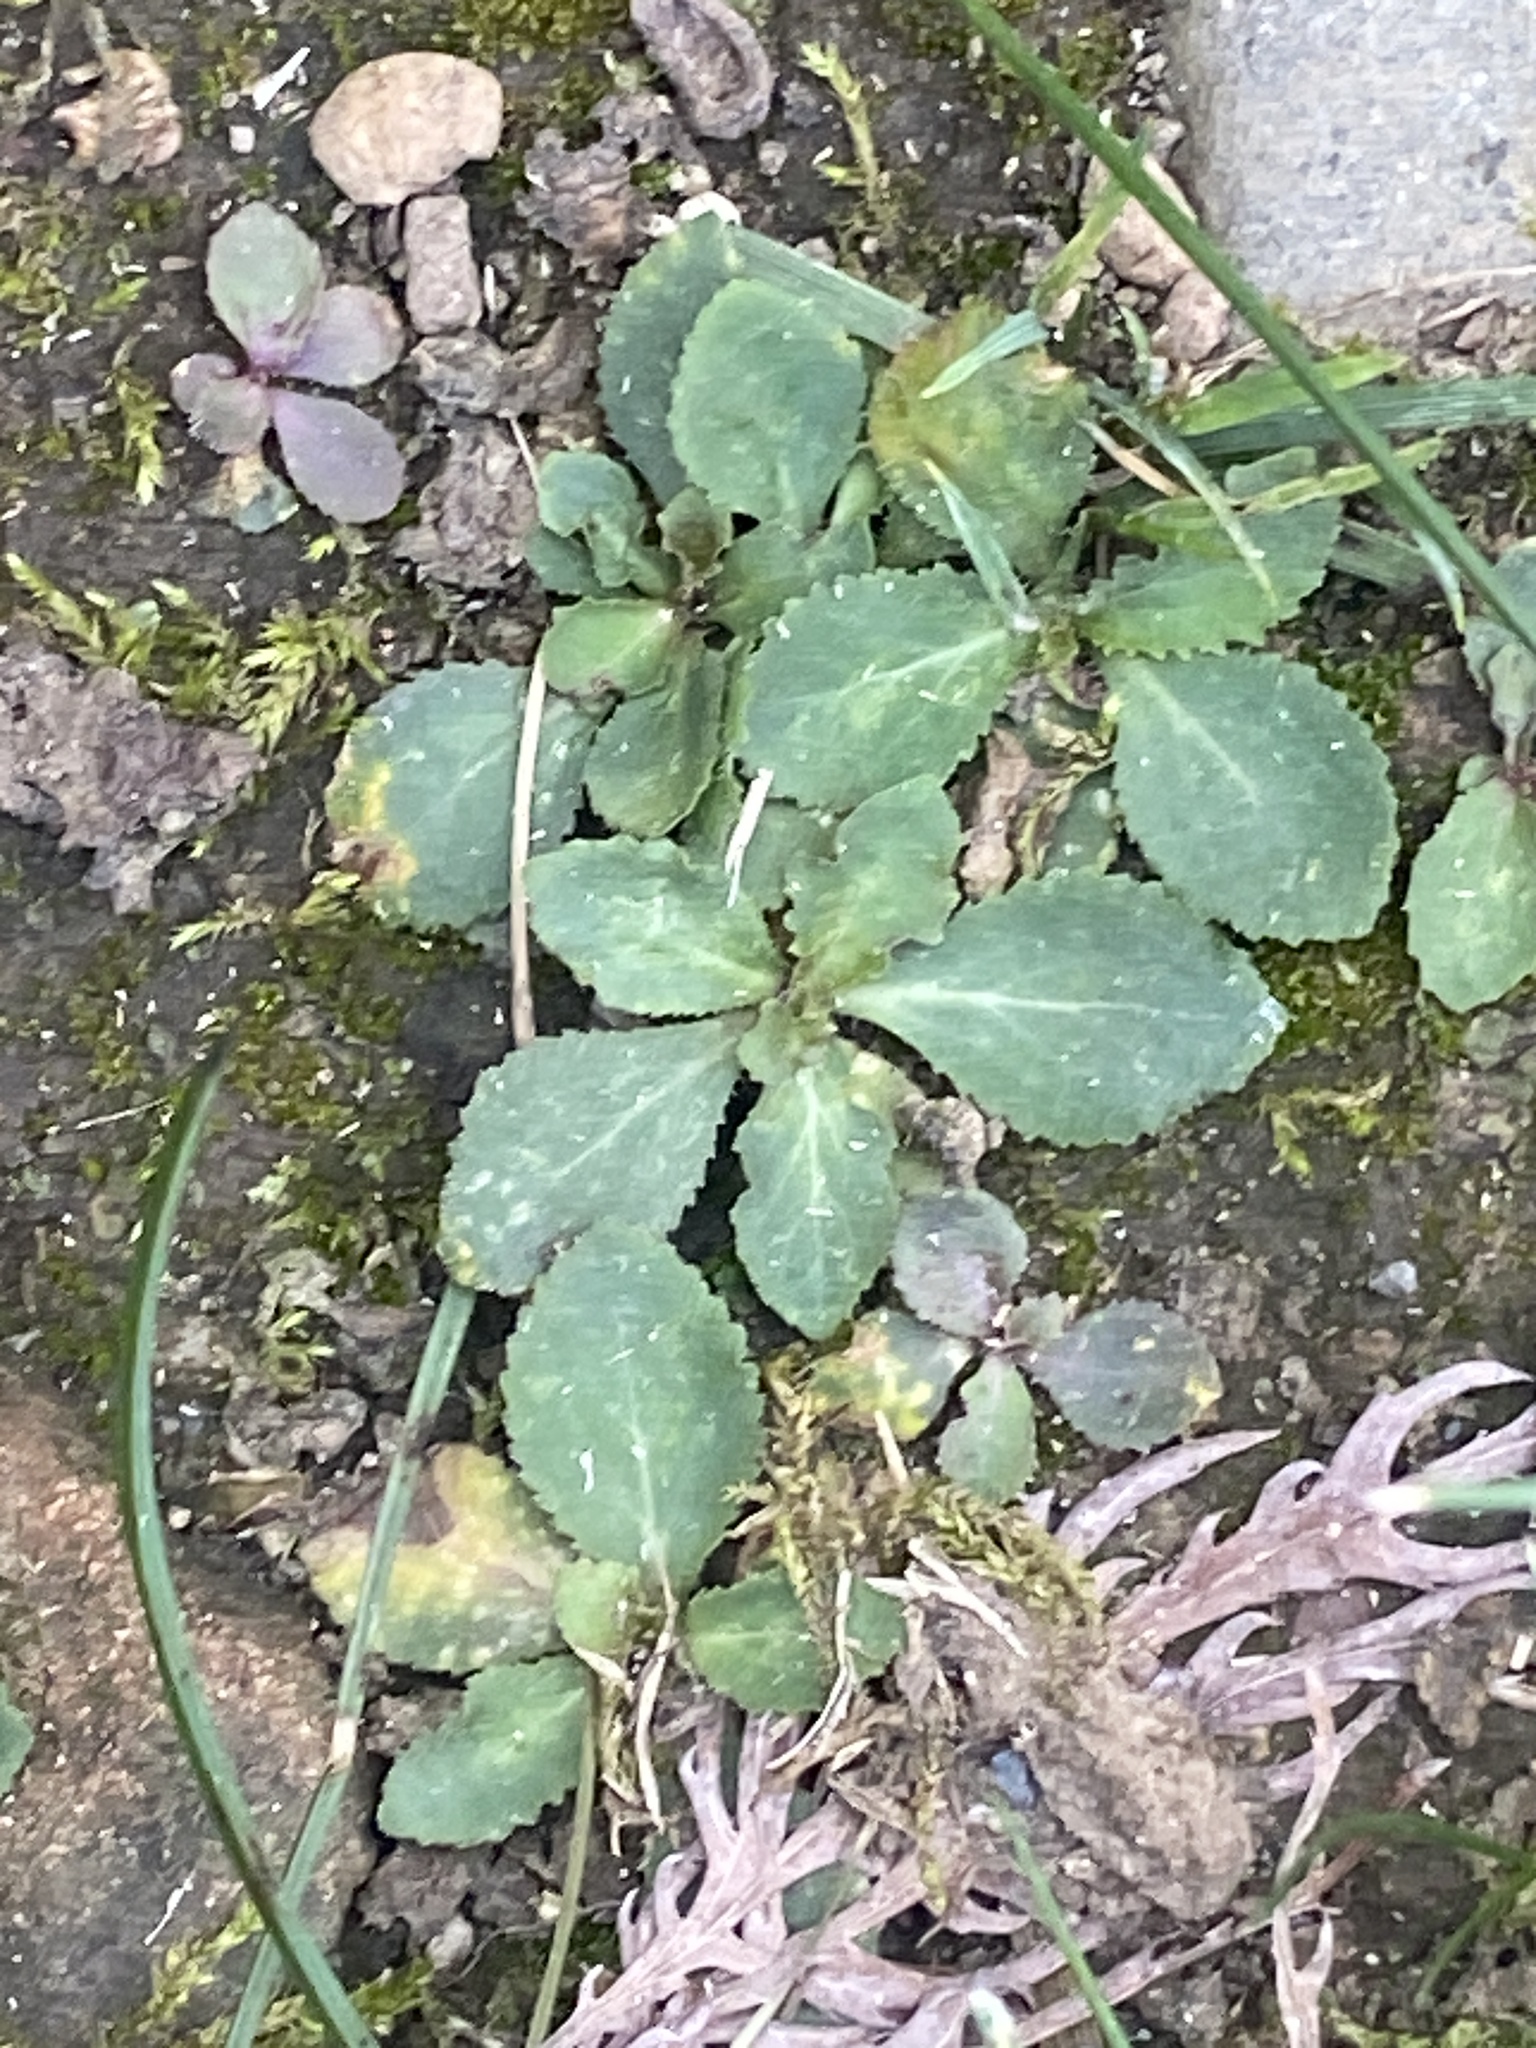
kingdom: Plantae
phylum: Tracheophyta
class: Magnoliopsida
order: Asterales
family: Campanulaceae
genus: Lobelia
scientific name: Lobelia inflata
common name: Indian tobacco
